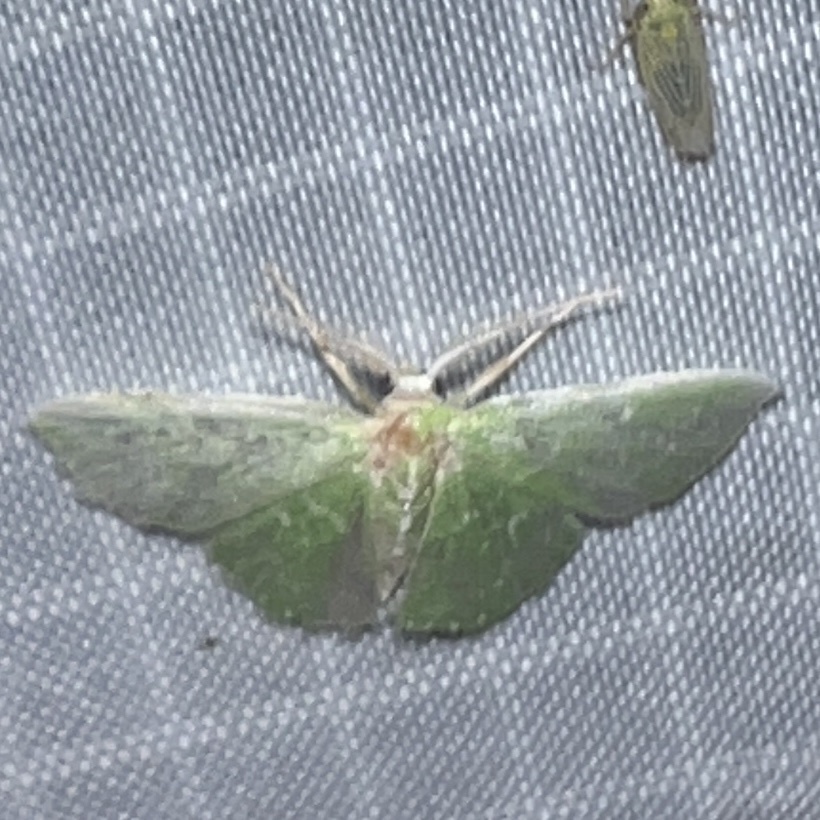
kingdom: Animalia
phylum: Arthropoda
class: Insecta
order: Lepidoptera
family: Geometridae
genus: Synchlora
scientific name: Synchlora frondaria
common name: Southern emerald
